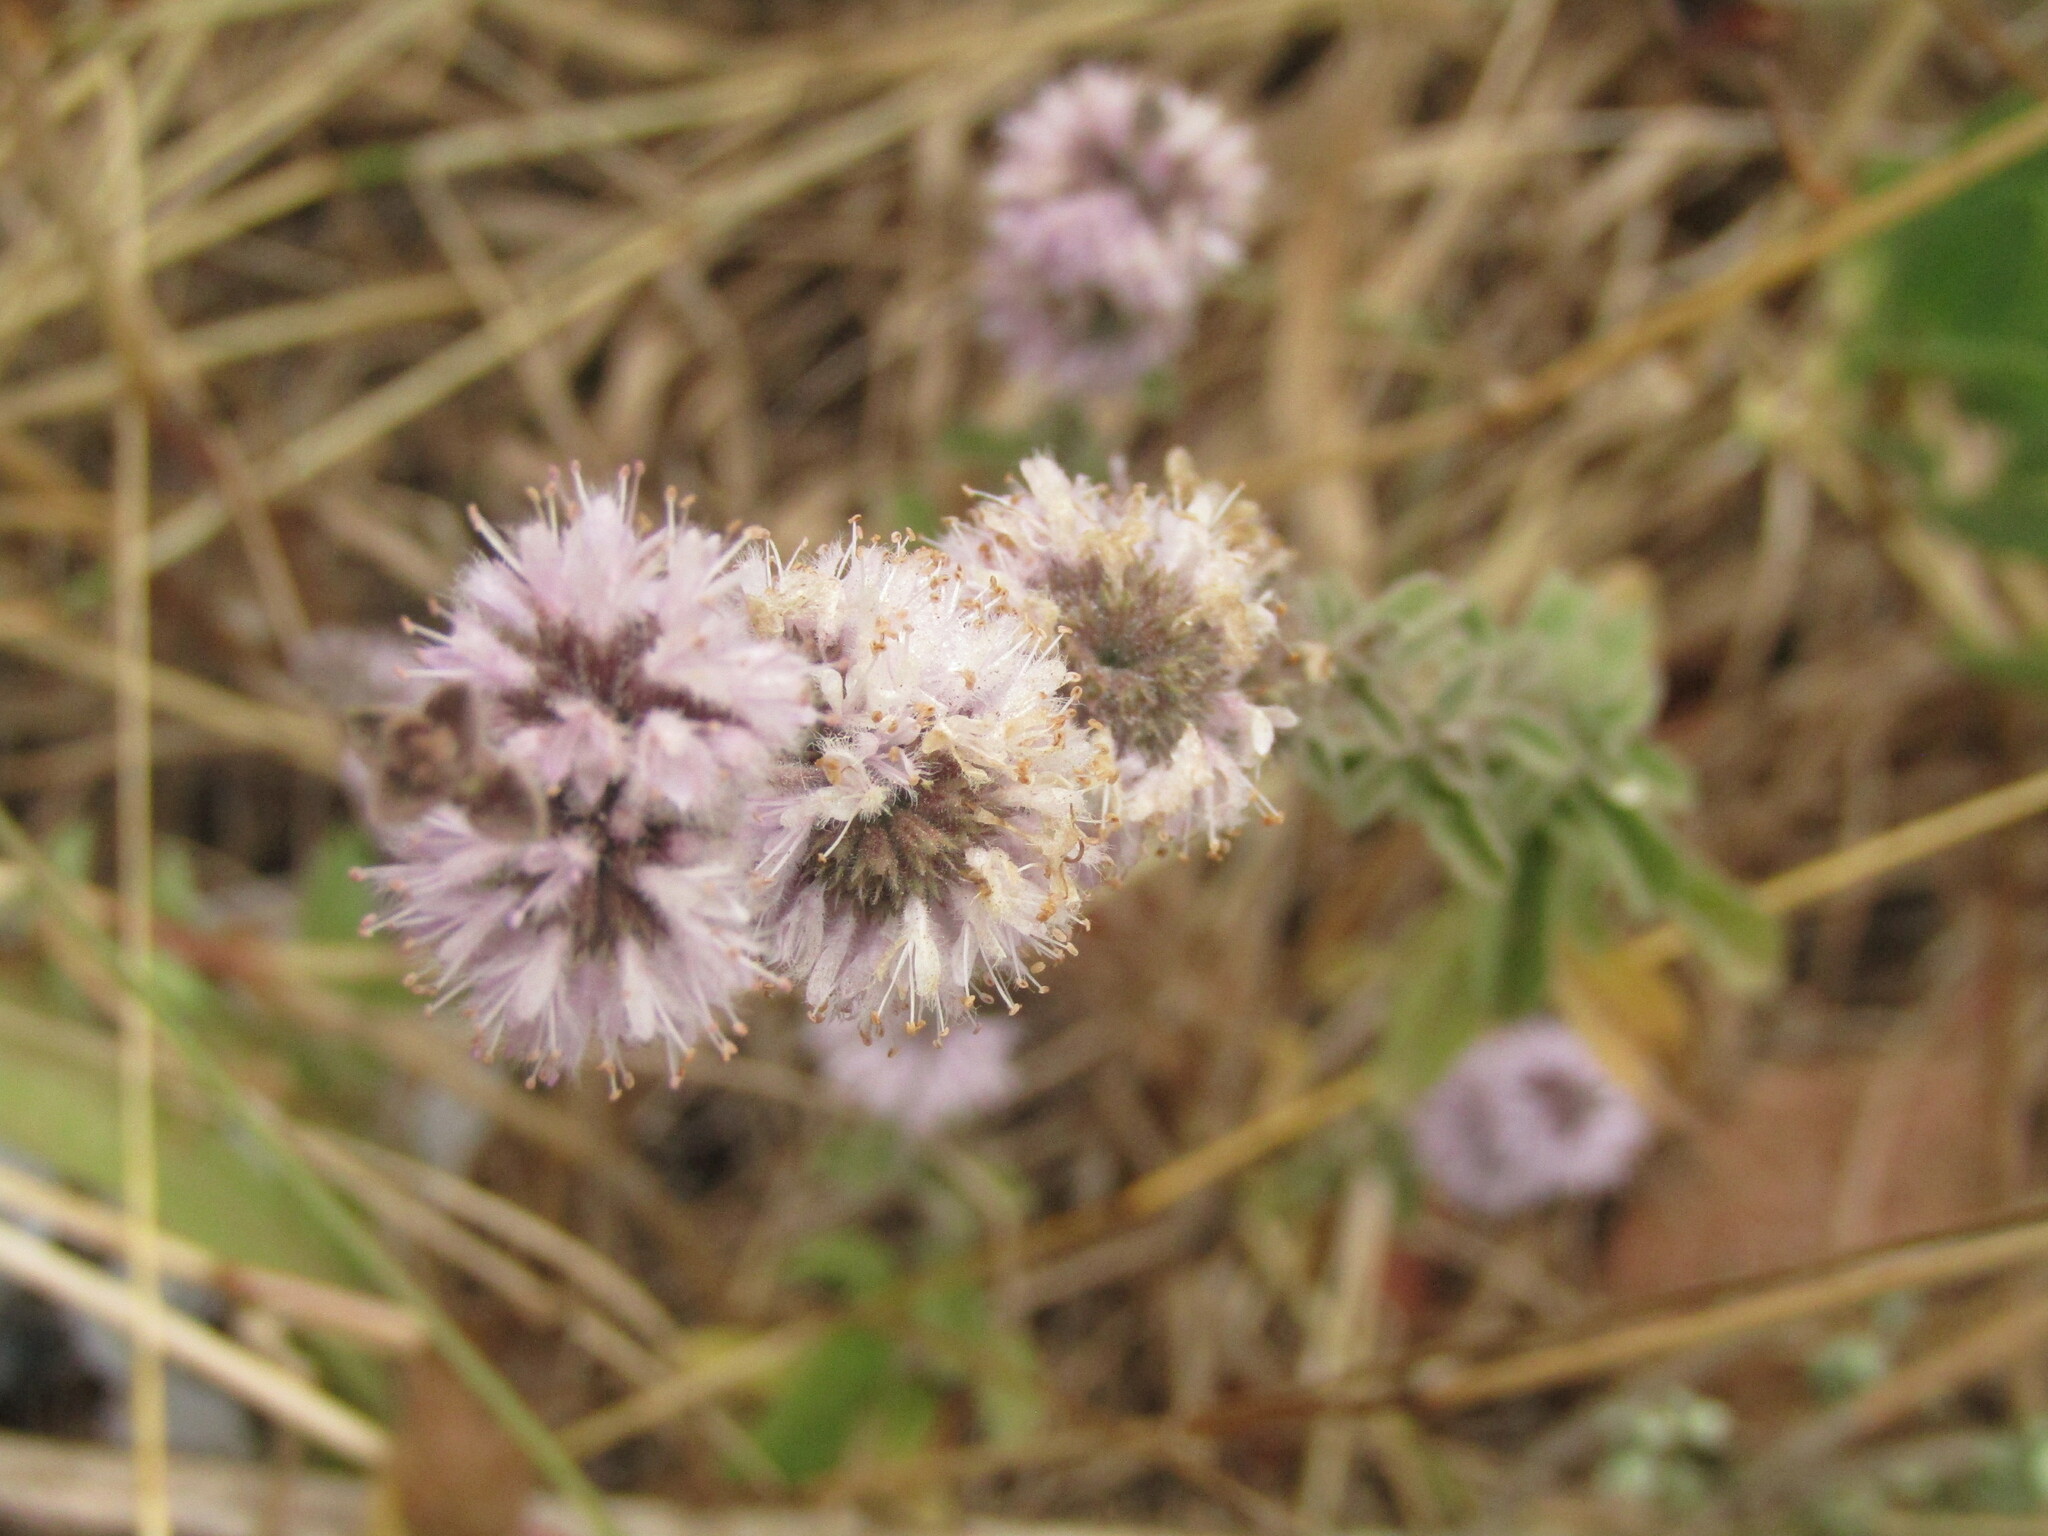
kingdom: Plantae
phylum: Tracheophyta
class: Magnoliopsida
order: Lamiales
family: Lamiaceae
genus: Mentha
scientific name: Mentha pulegium
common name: Pennyroyal
